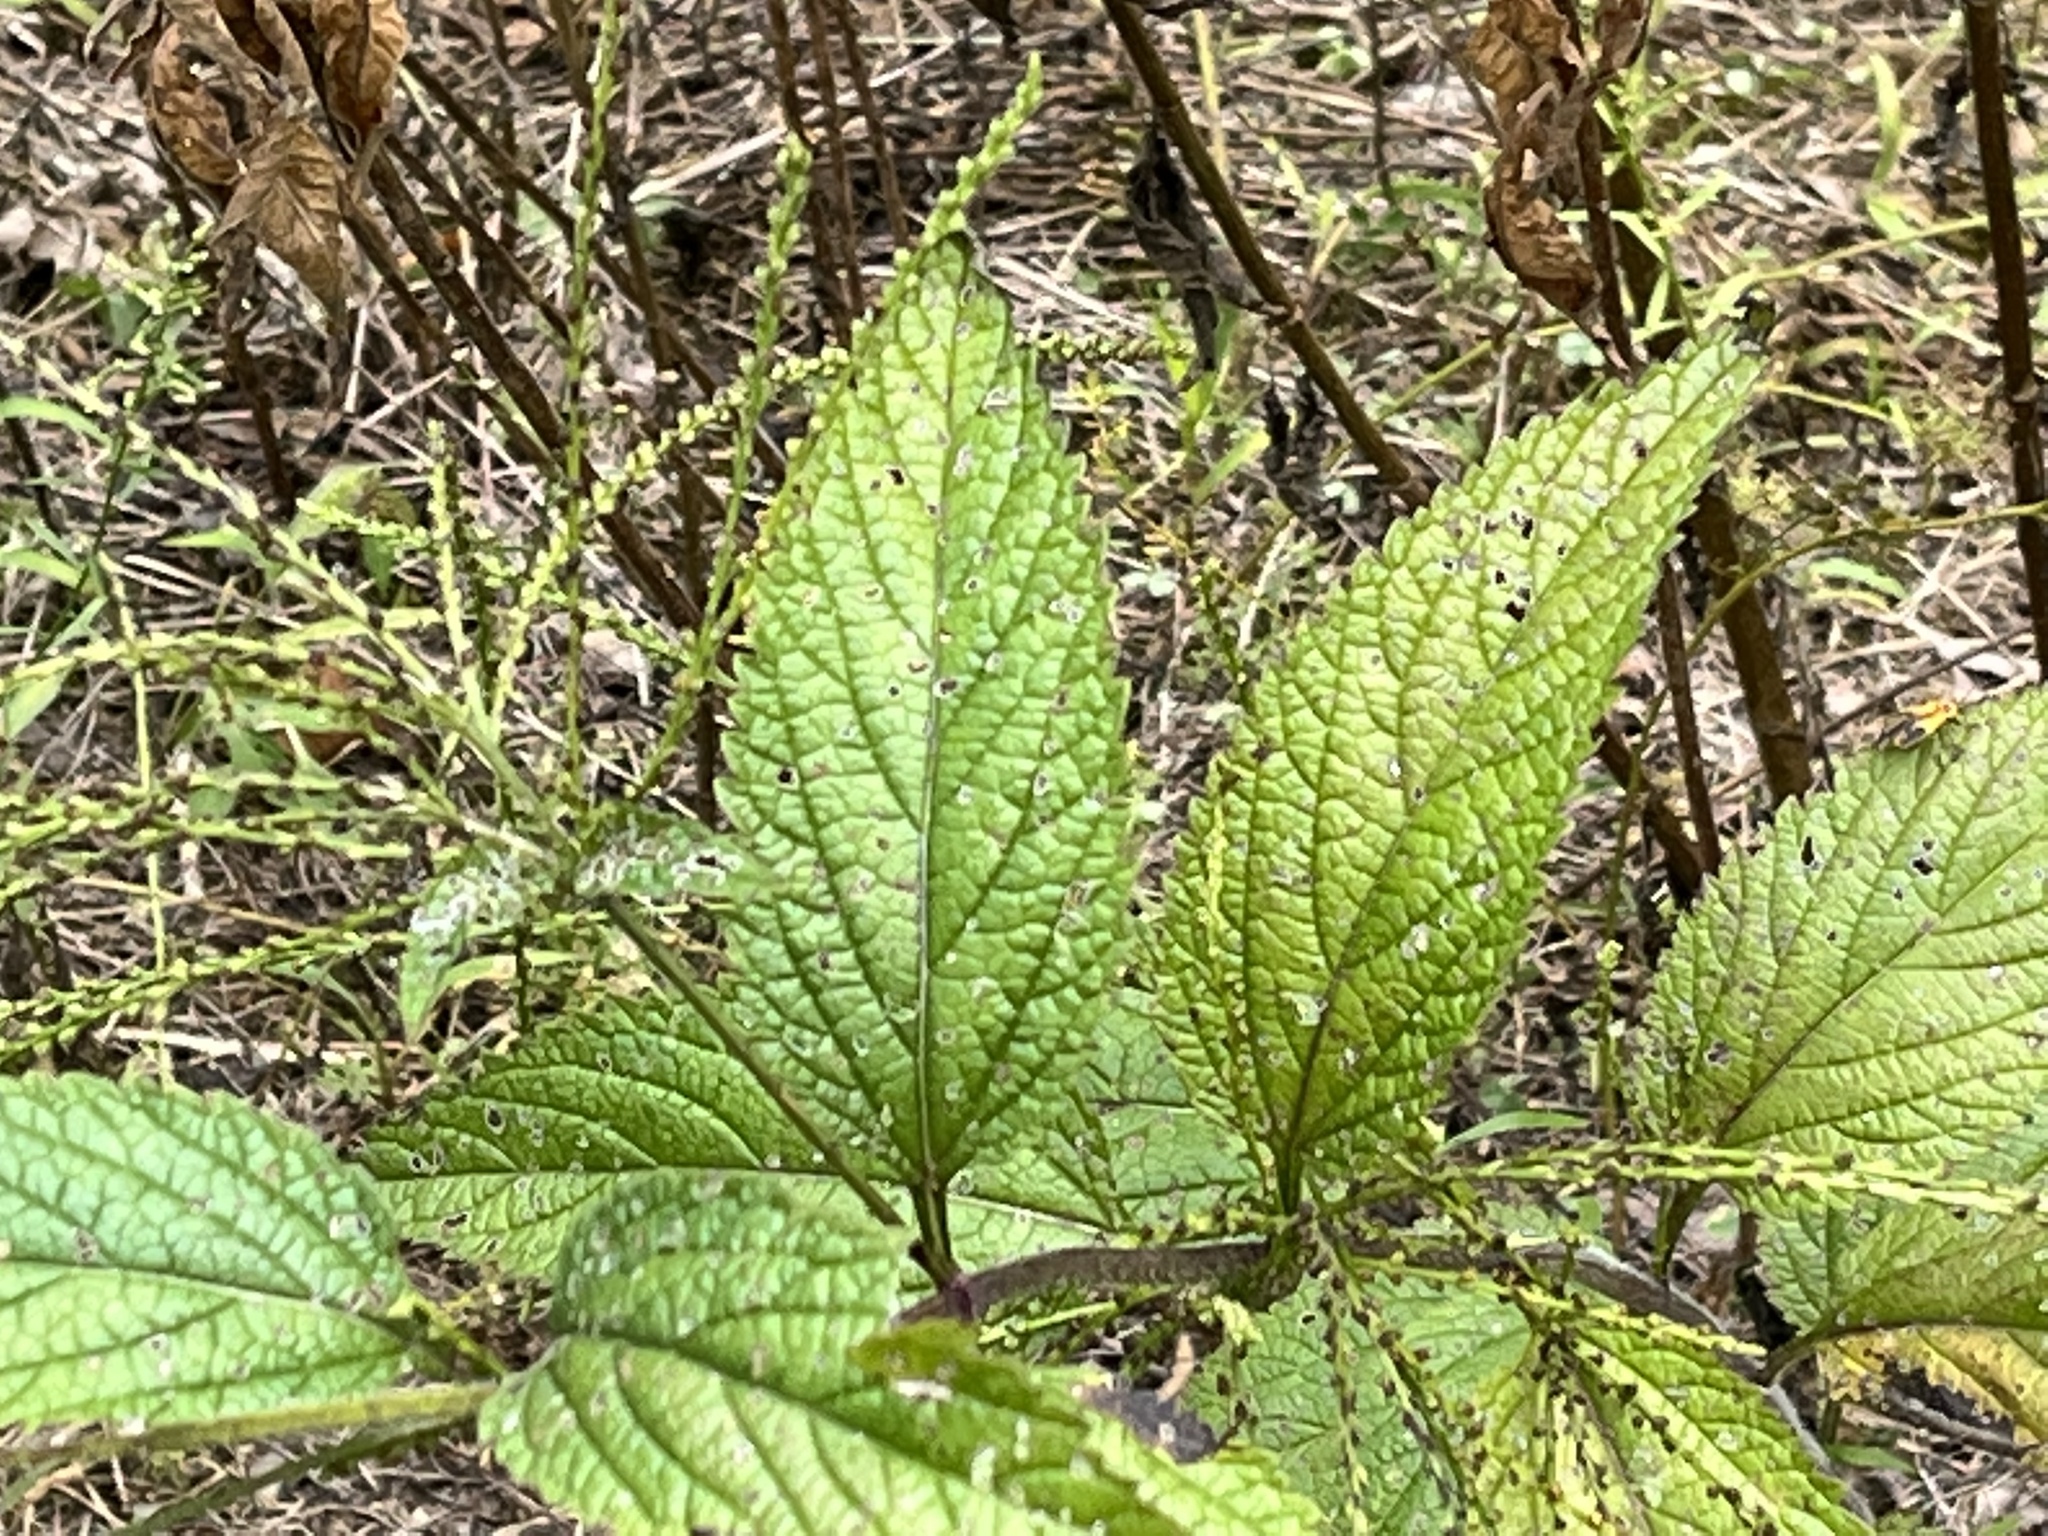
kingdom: Plantae
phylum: Tracheophyta
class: Magnoliopsida
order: Lamiales
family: Verbenaceae
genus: Verbena
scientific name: Verbena urticifolia
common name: Nettle-leaved vervain
